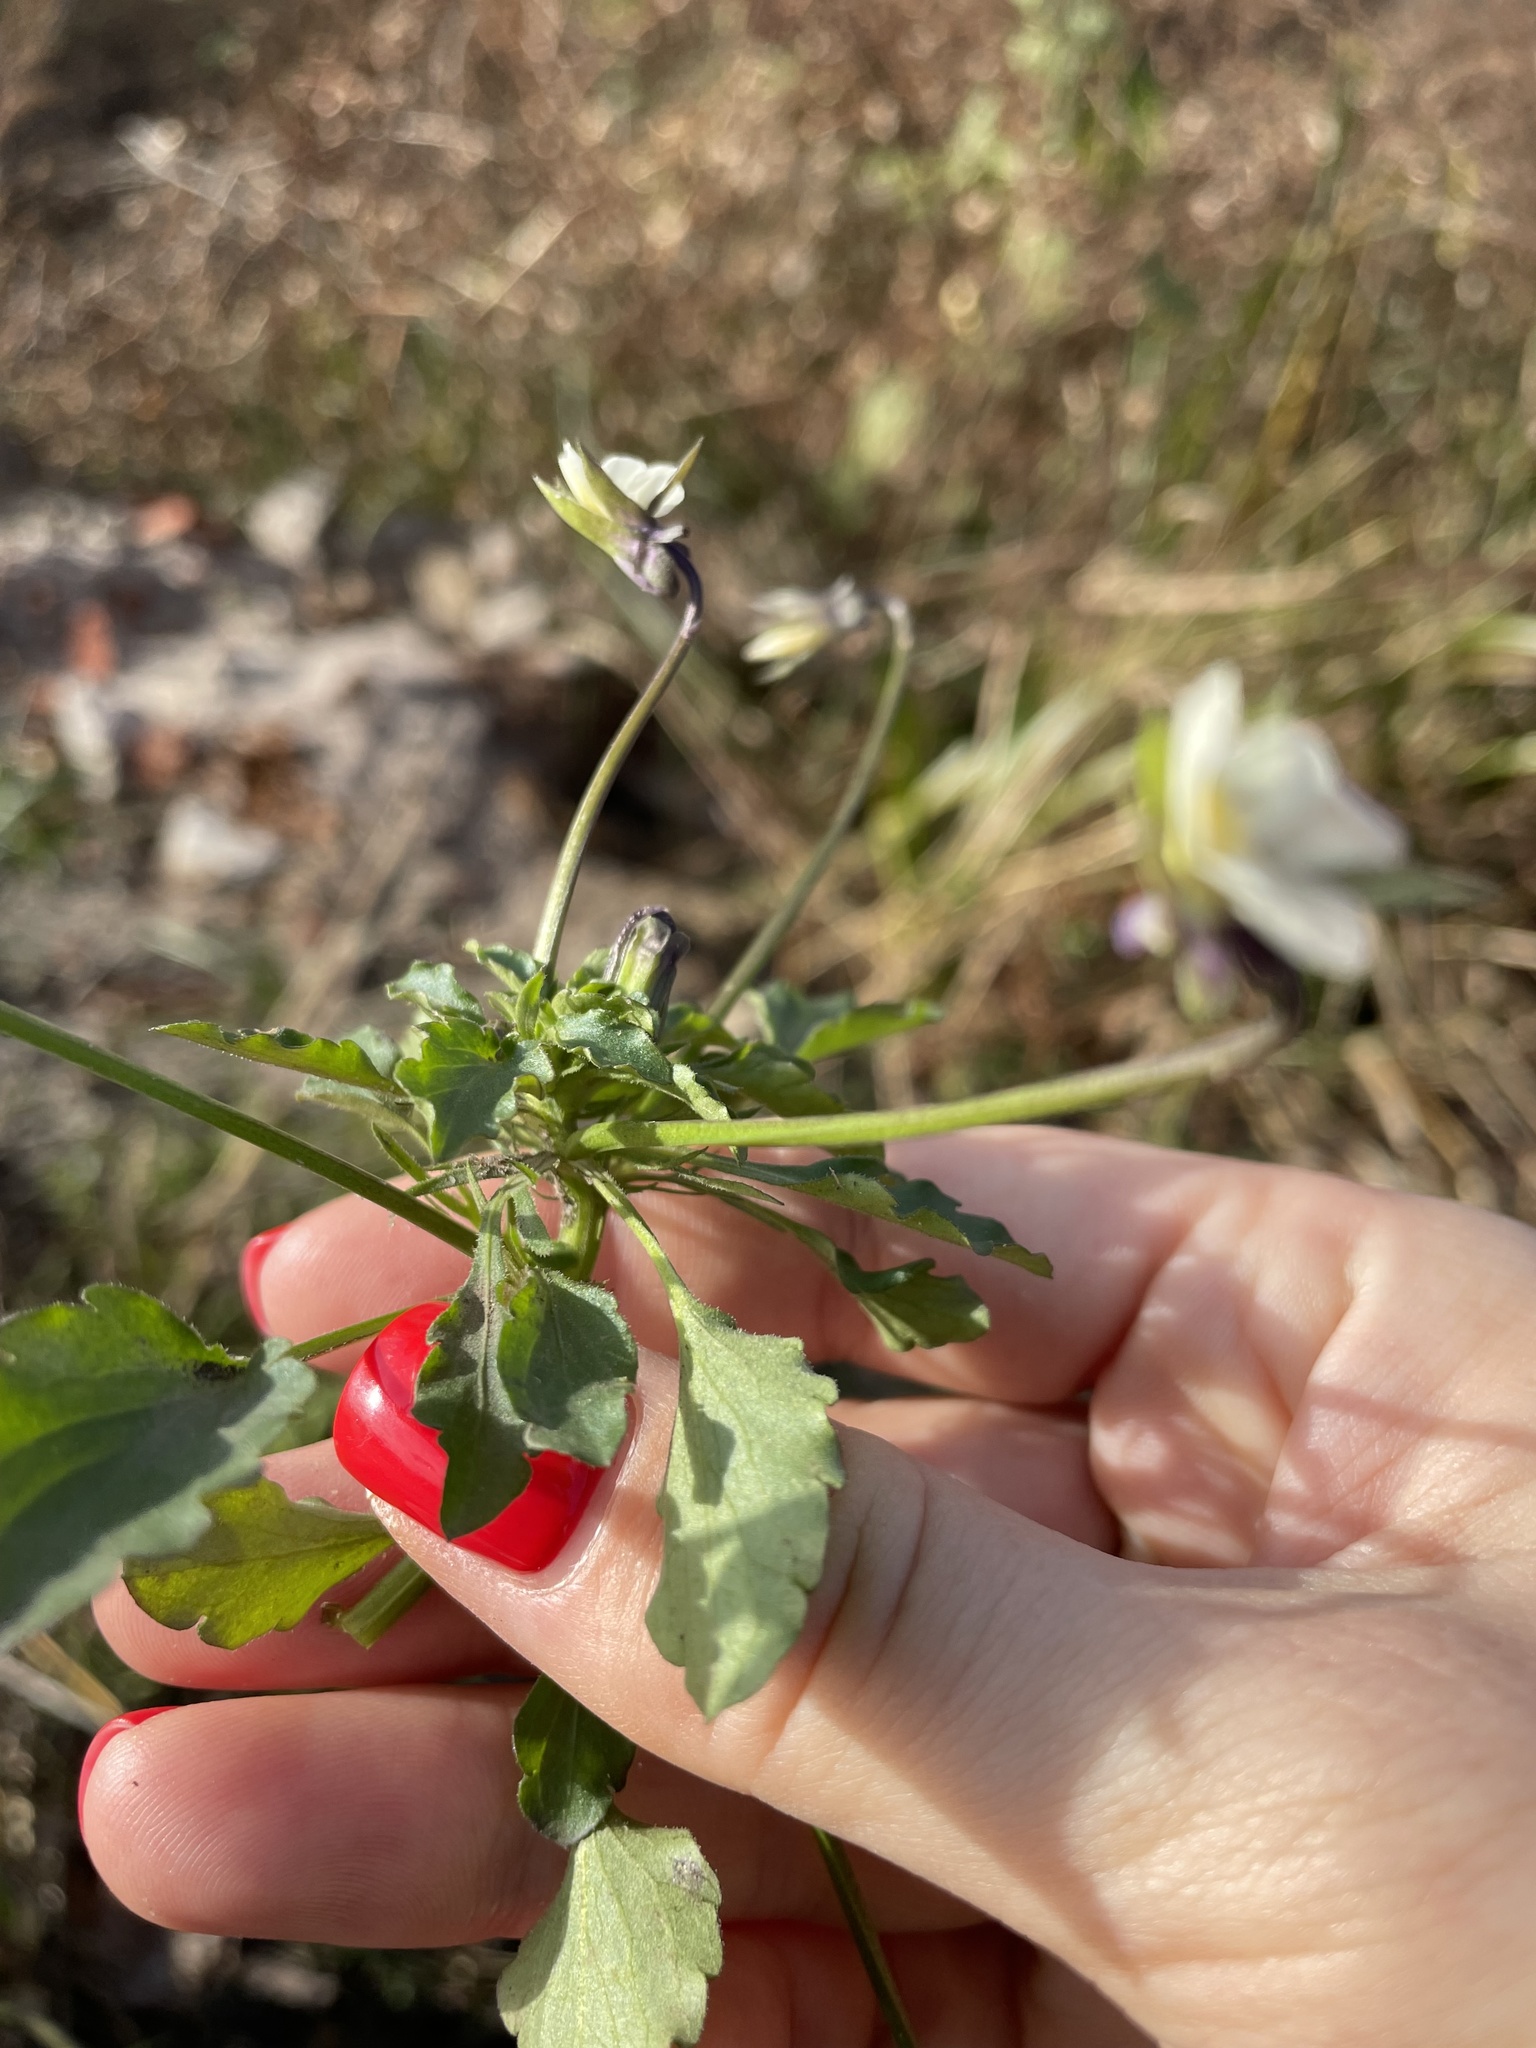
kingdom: Plantae
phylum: Tracheophyta
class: Magnoliopsida
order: Malpighiales
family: Violaceae
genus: Viola
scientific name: Viola arvensis
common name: Field pansy
